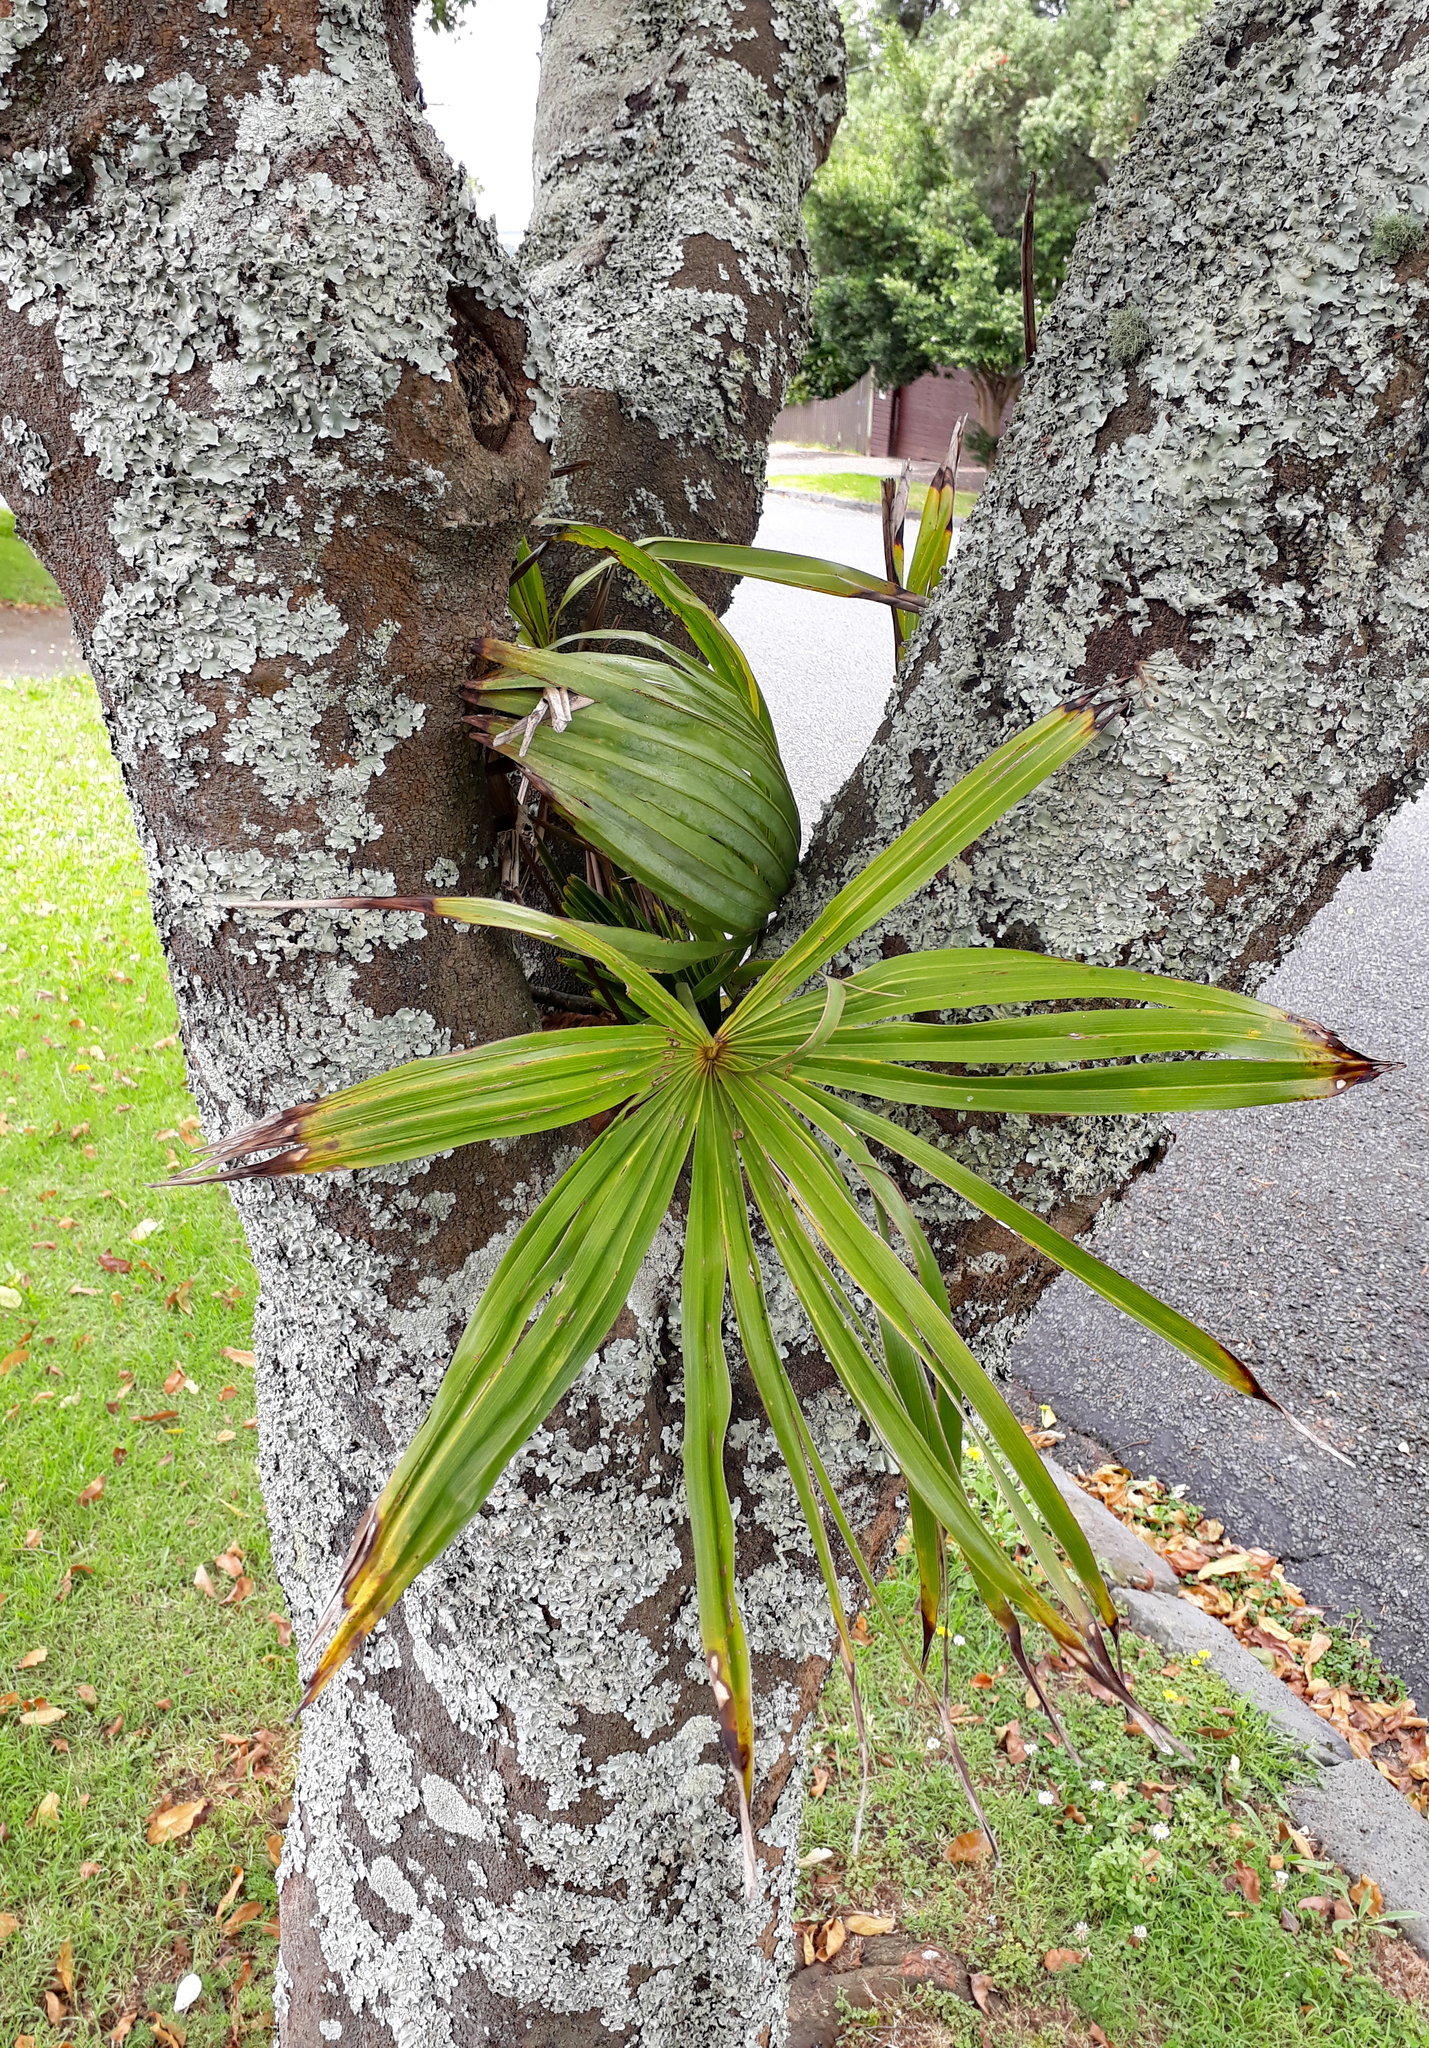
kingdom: Plantae
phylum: Tracheophyta
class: Liliopsida
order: Arecales
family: Arecaceae
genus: Trachycarpus
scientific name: Trachycarpus fortunei
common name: Chusan palm
